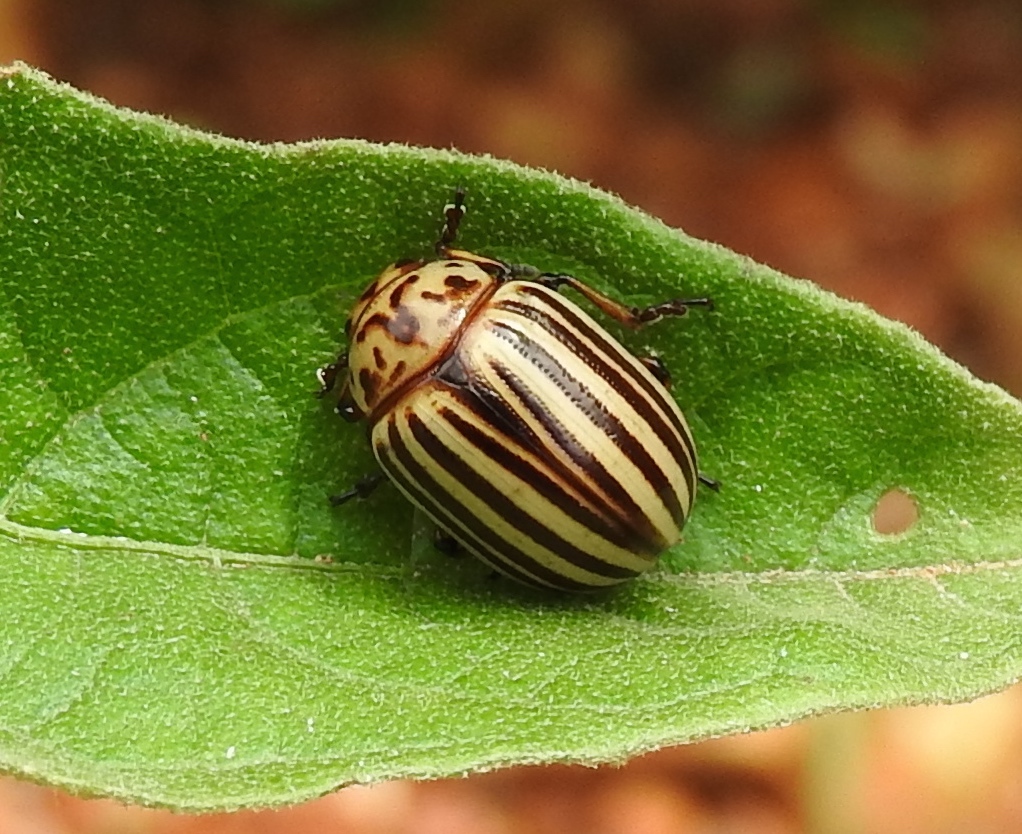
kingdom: Animalia
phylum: Arthropoda
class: Insecta
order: Coleoptera
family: Chrysomelidae
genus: Leptinotarsa
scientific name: Leptinotarsa decemlineata
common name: Colorado potato beetle
